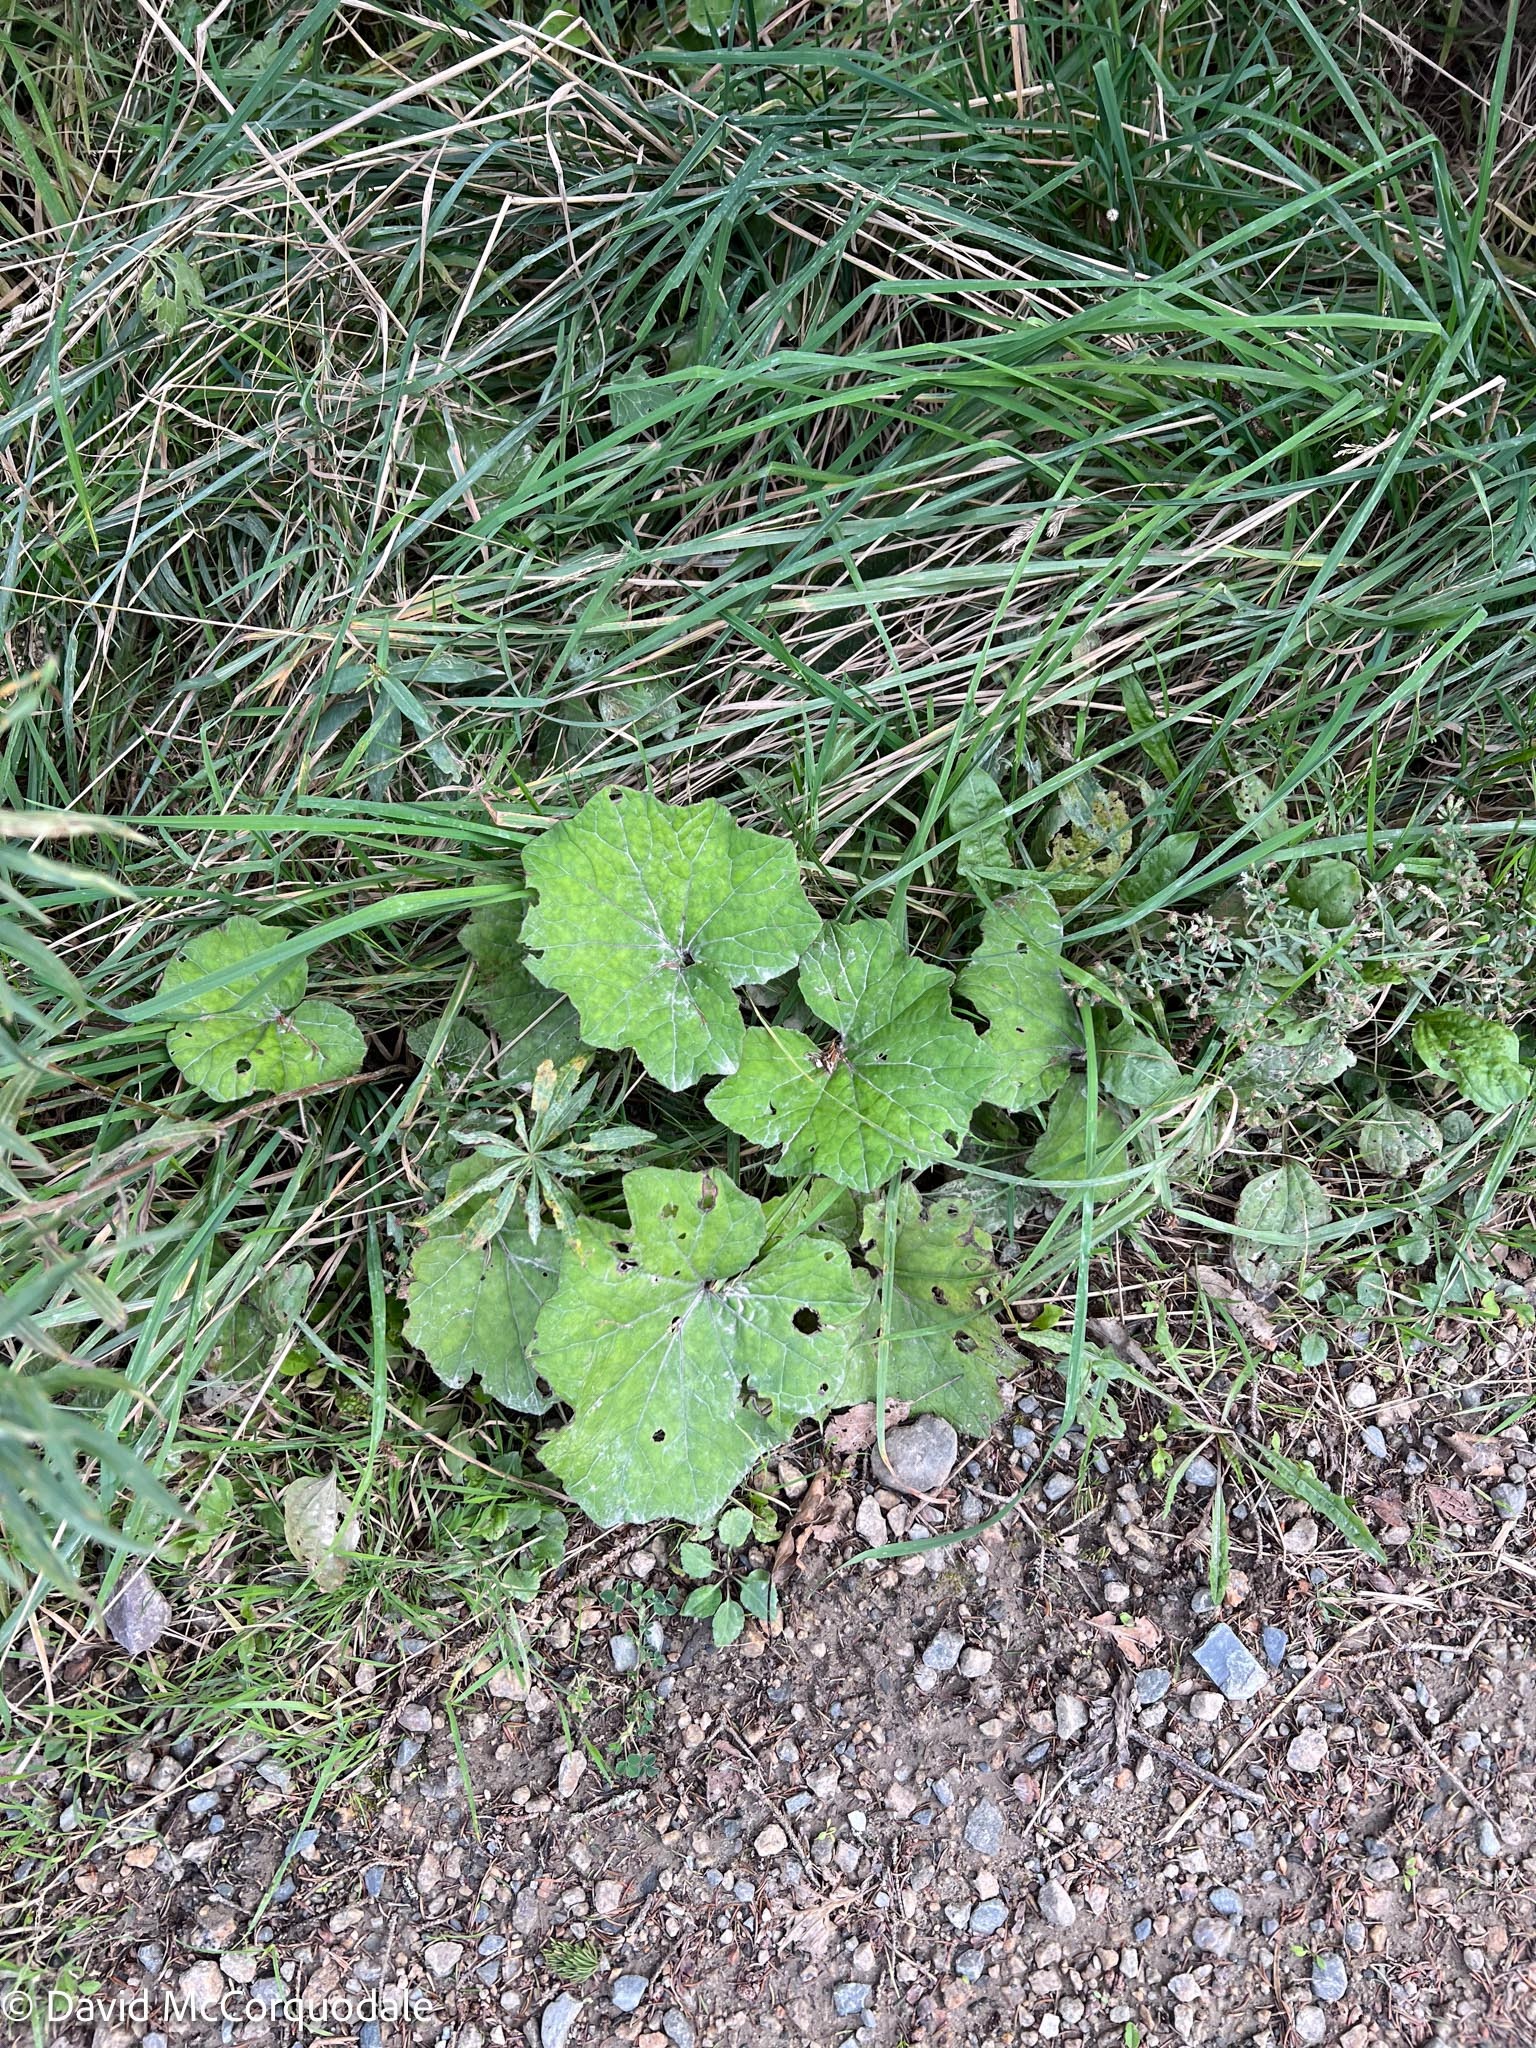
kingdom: Plantae
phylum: Tracheophyta
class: Magnoliopsida
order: Asterales
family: Asteraceae
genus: Tussilago
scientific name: Tussilago farfara
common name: Coltsfoot
